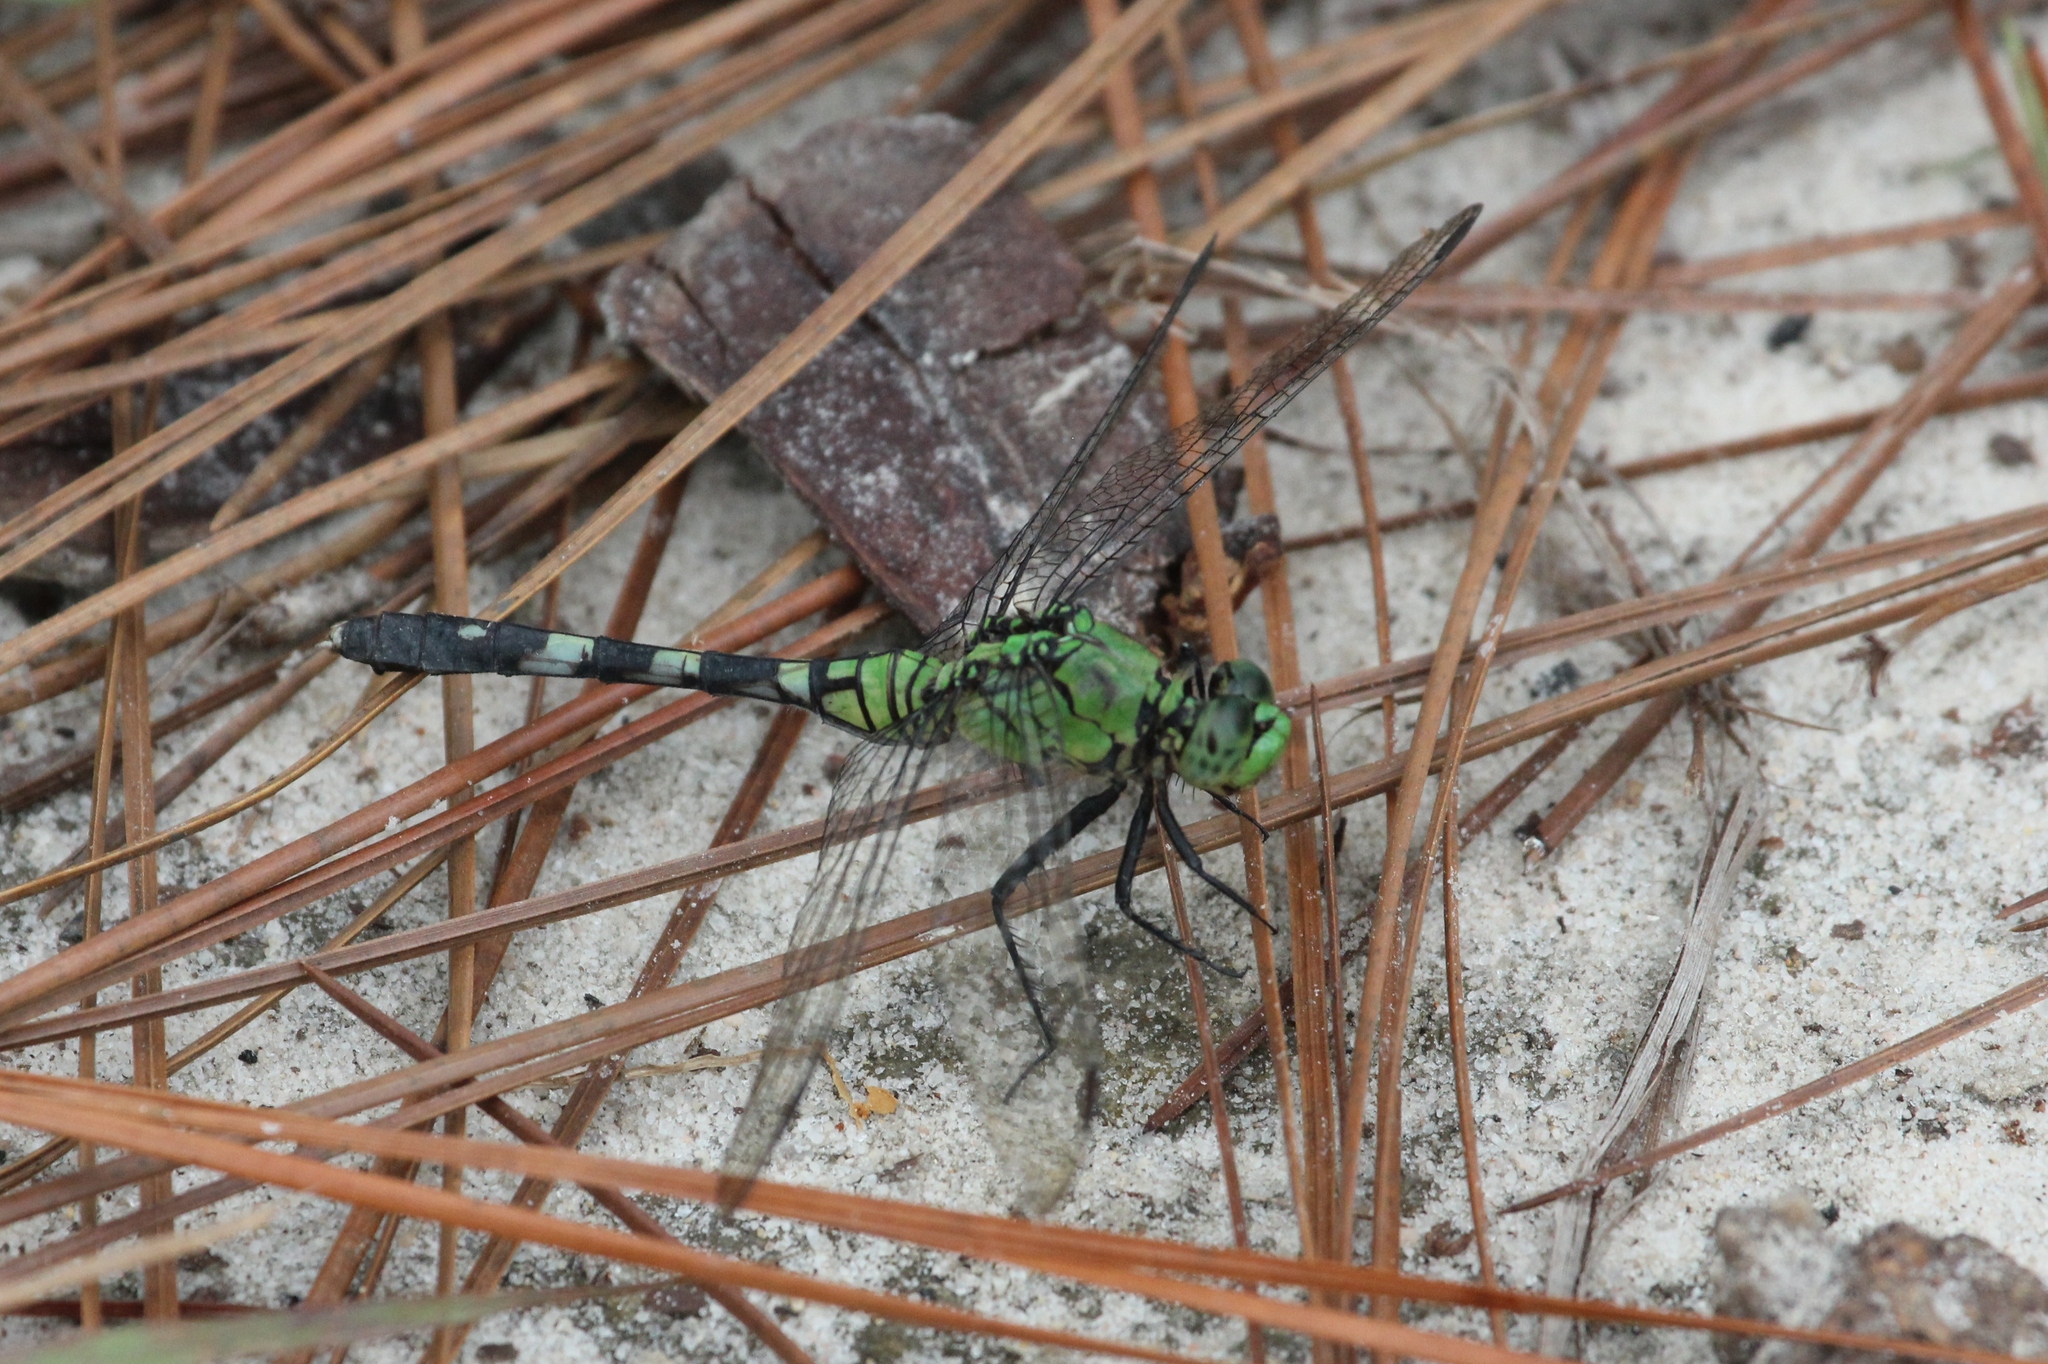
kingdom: Animalia
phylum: Arthropoda
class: Insecta
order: Odonata
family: Libellulidae
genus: Erythemis
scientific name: Erythemis simplicicollis
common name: Eastern pondhawk
